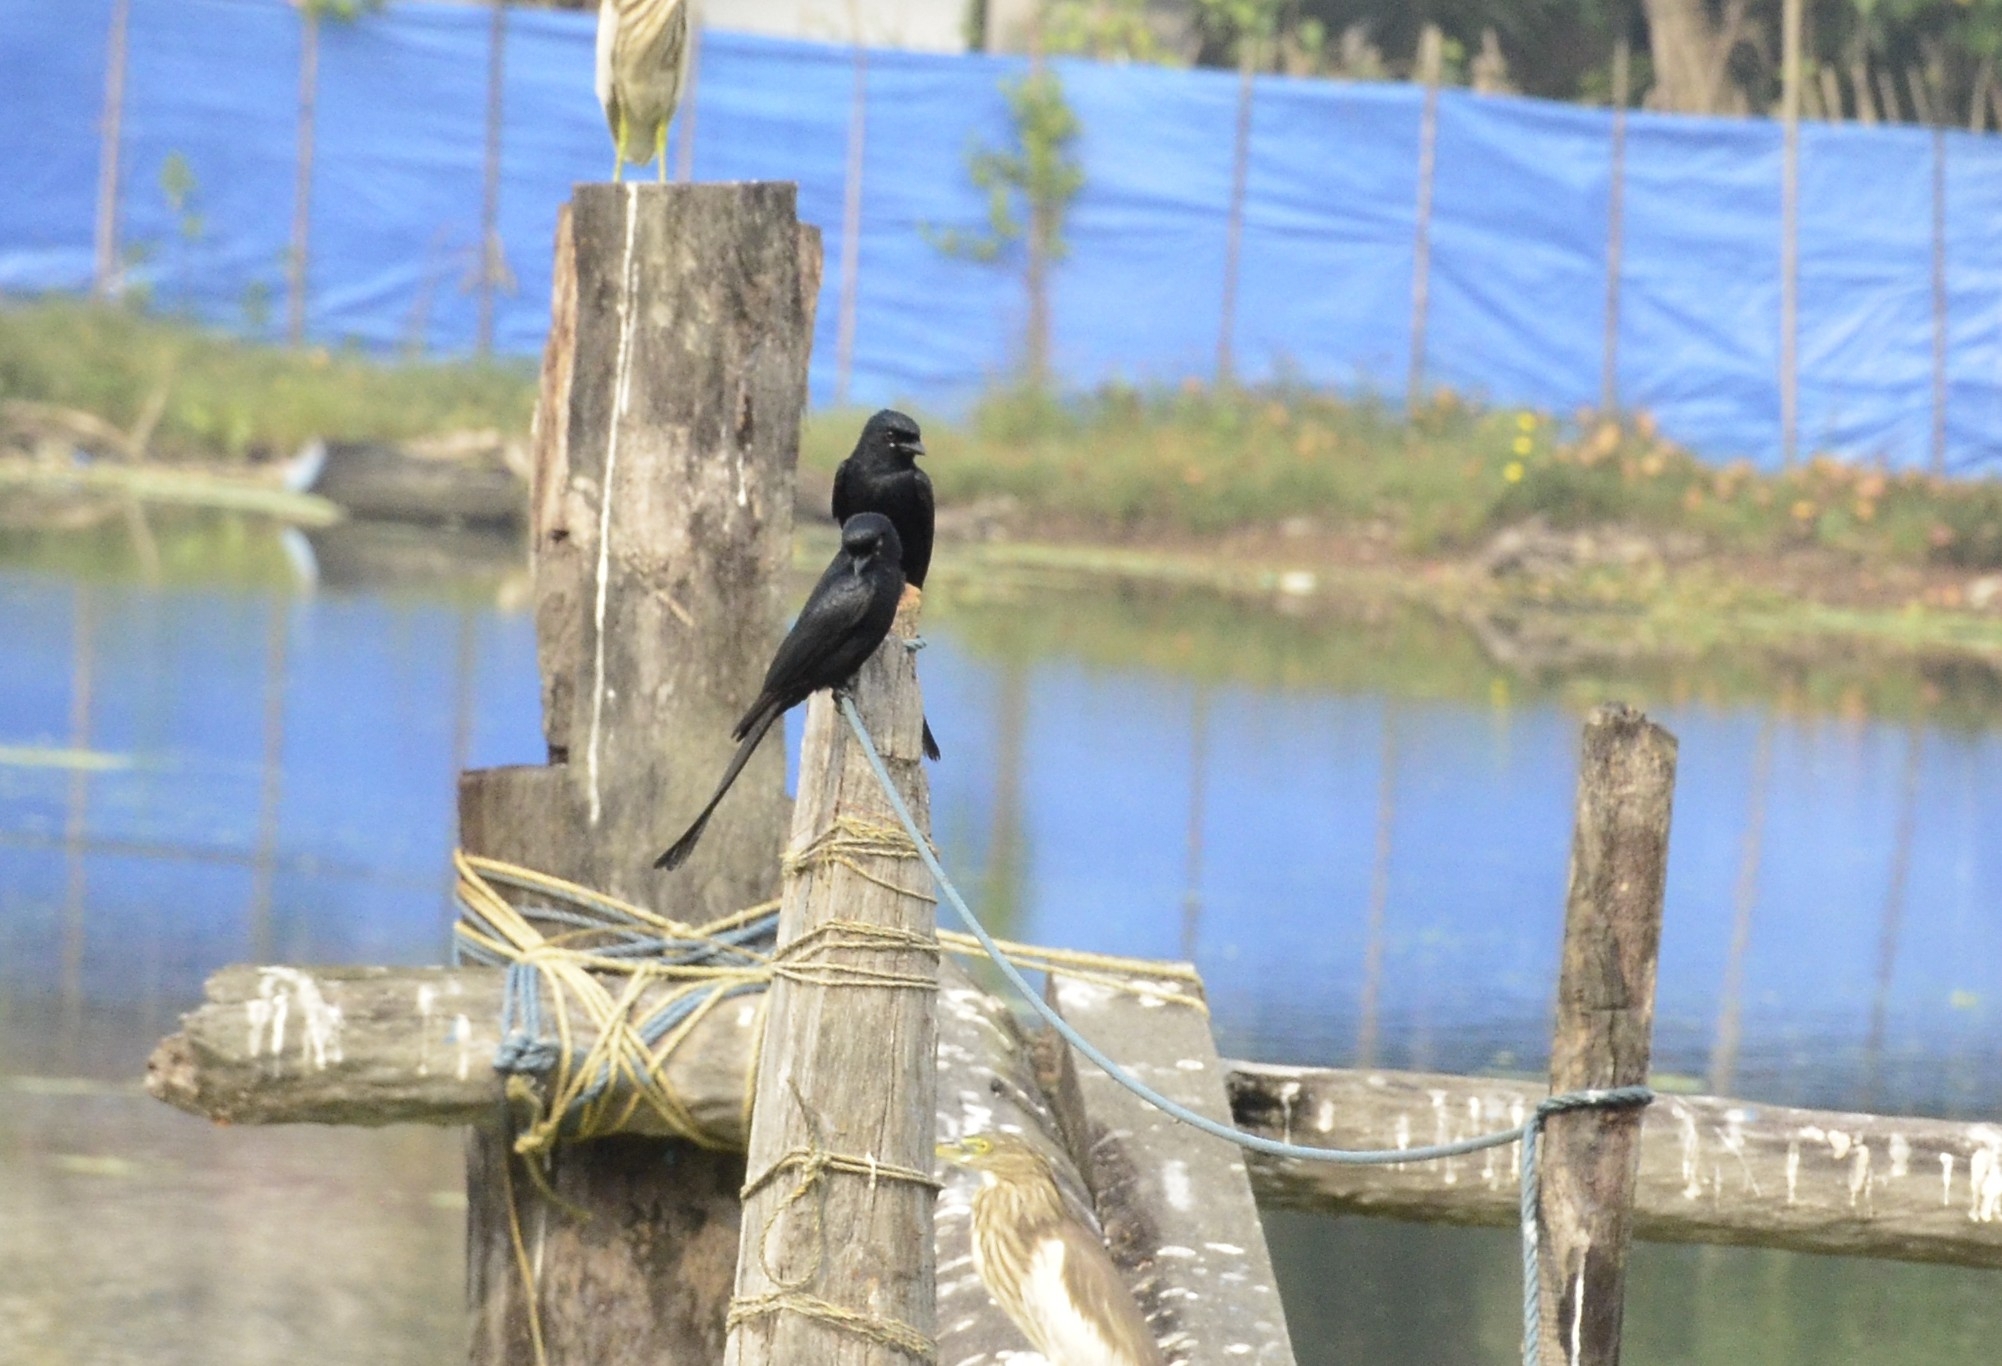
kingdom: Animalia
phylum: Chordata
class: Aves
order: Passeriformes
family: Dicruridae
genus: Dicrurus
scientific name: Dicrurus macrocercus
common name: Black drongo
